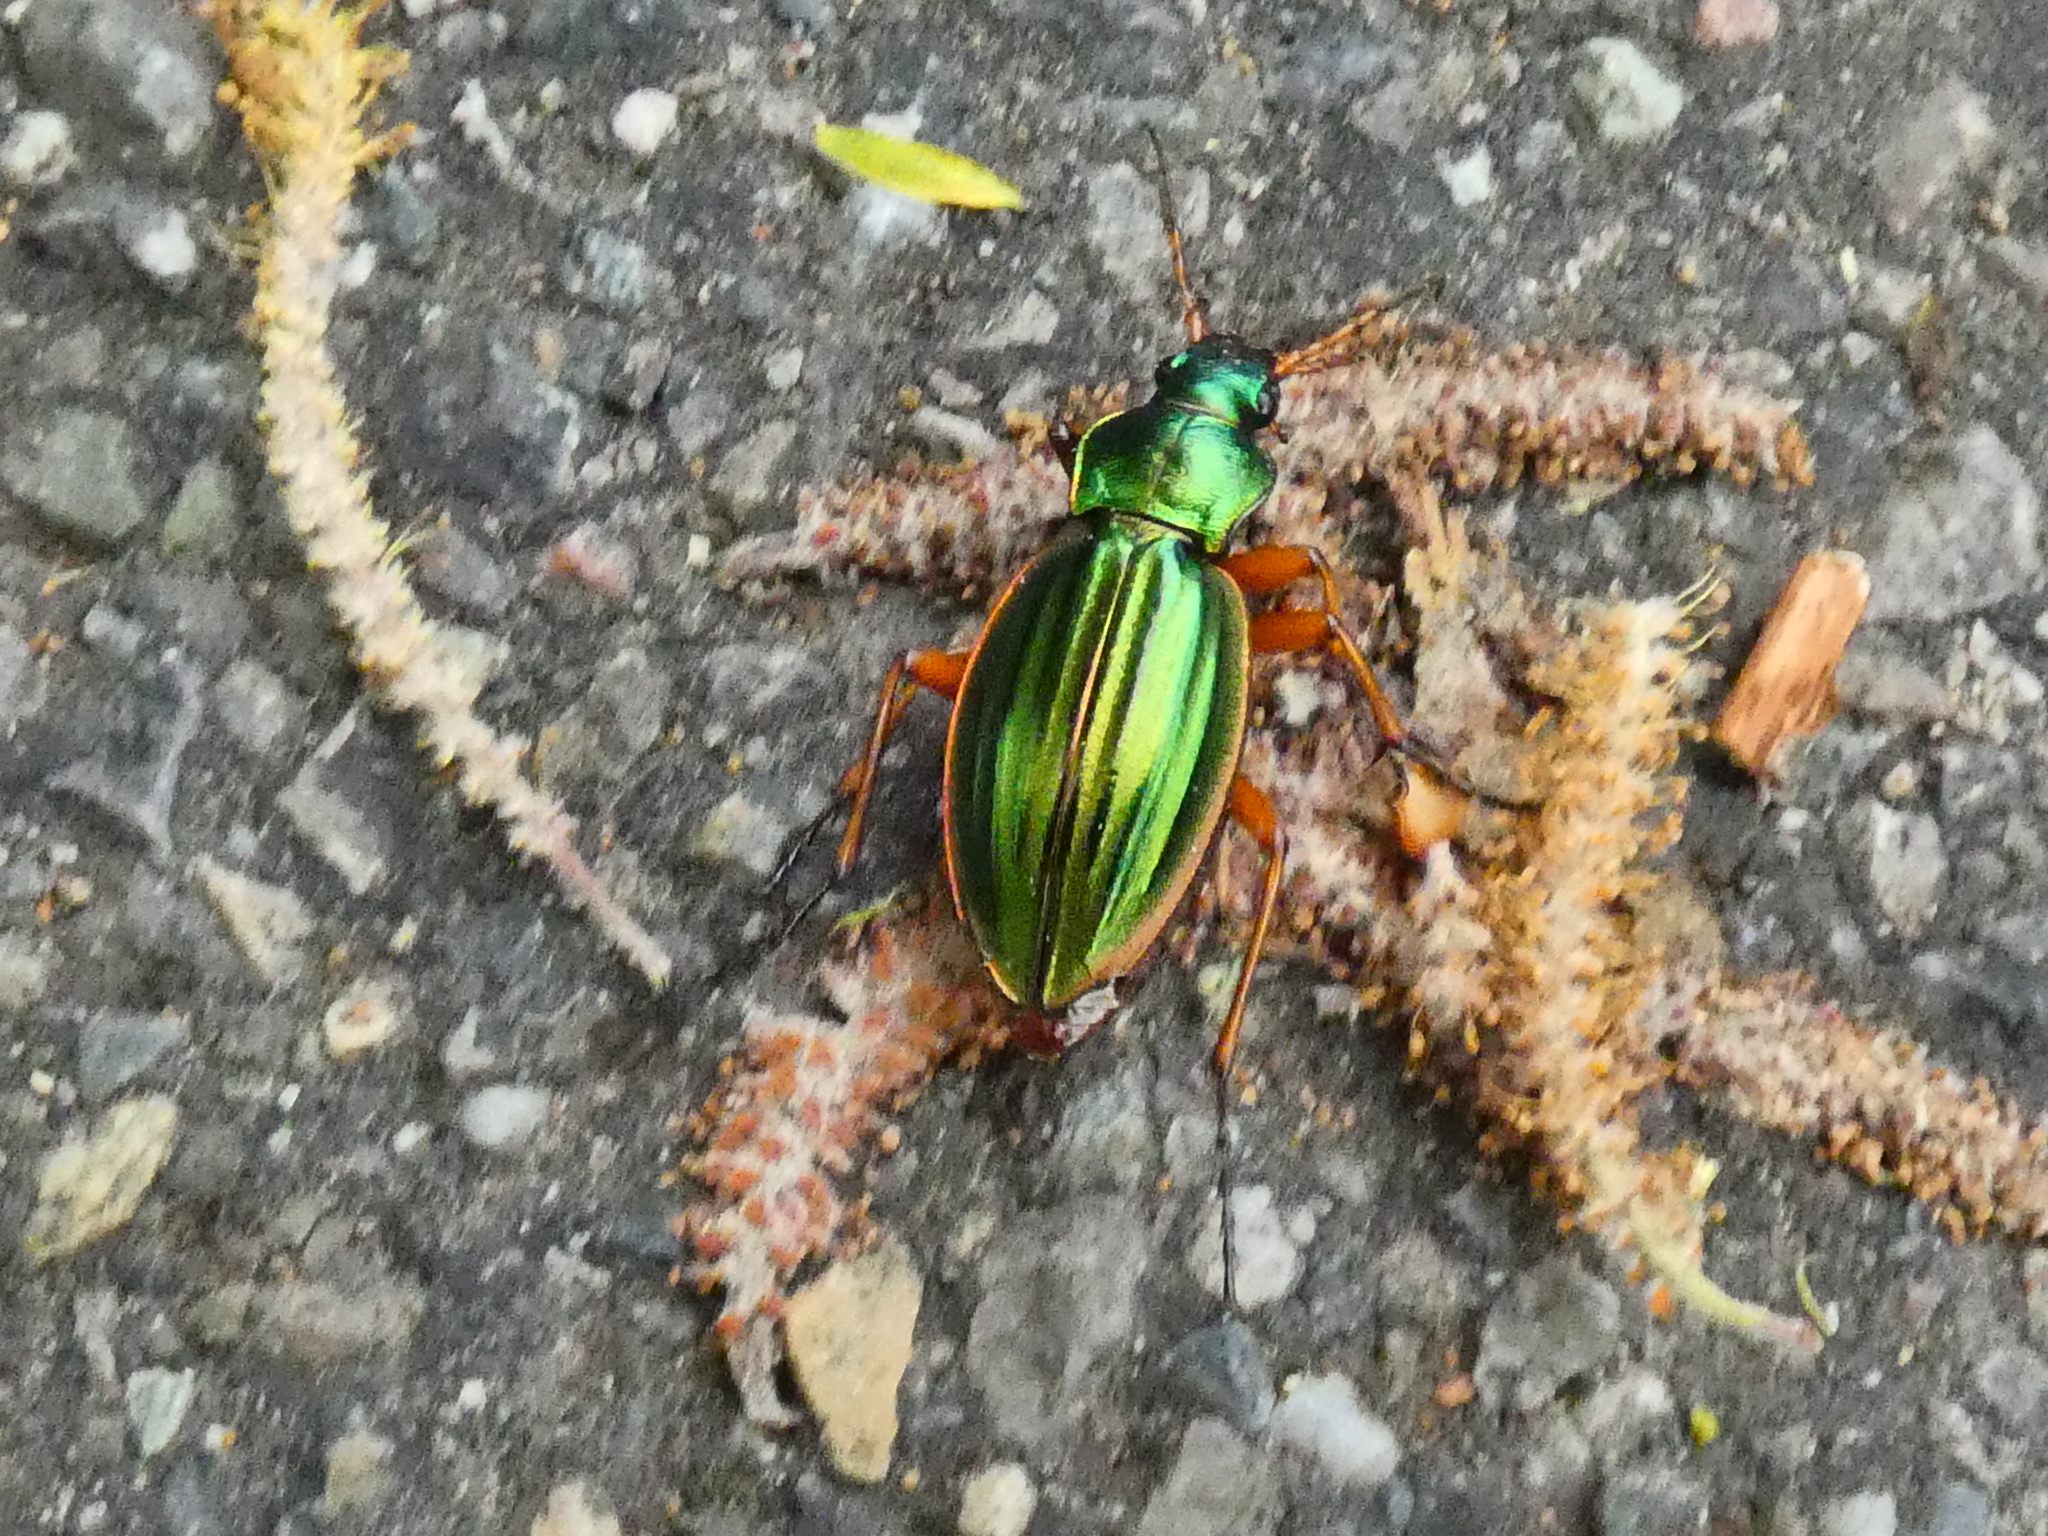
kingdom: Animalia
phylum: Arthropoda
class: Insecta
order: Coleoptera
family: Carabidae
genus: Carabus
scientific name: Carabus auratus
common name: Golden ground beetle
